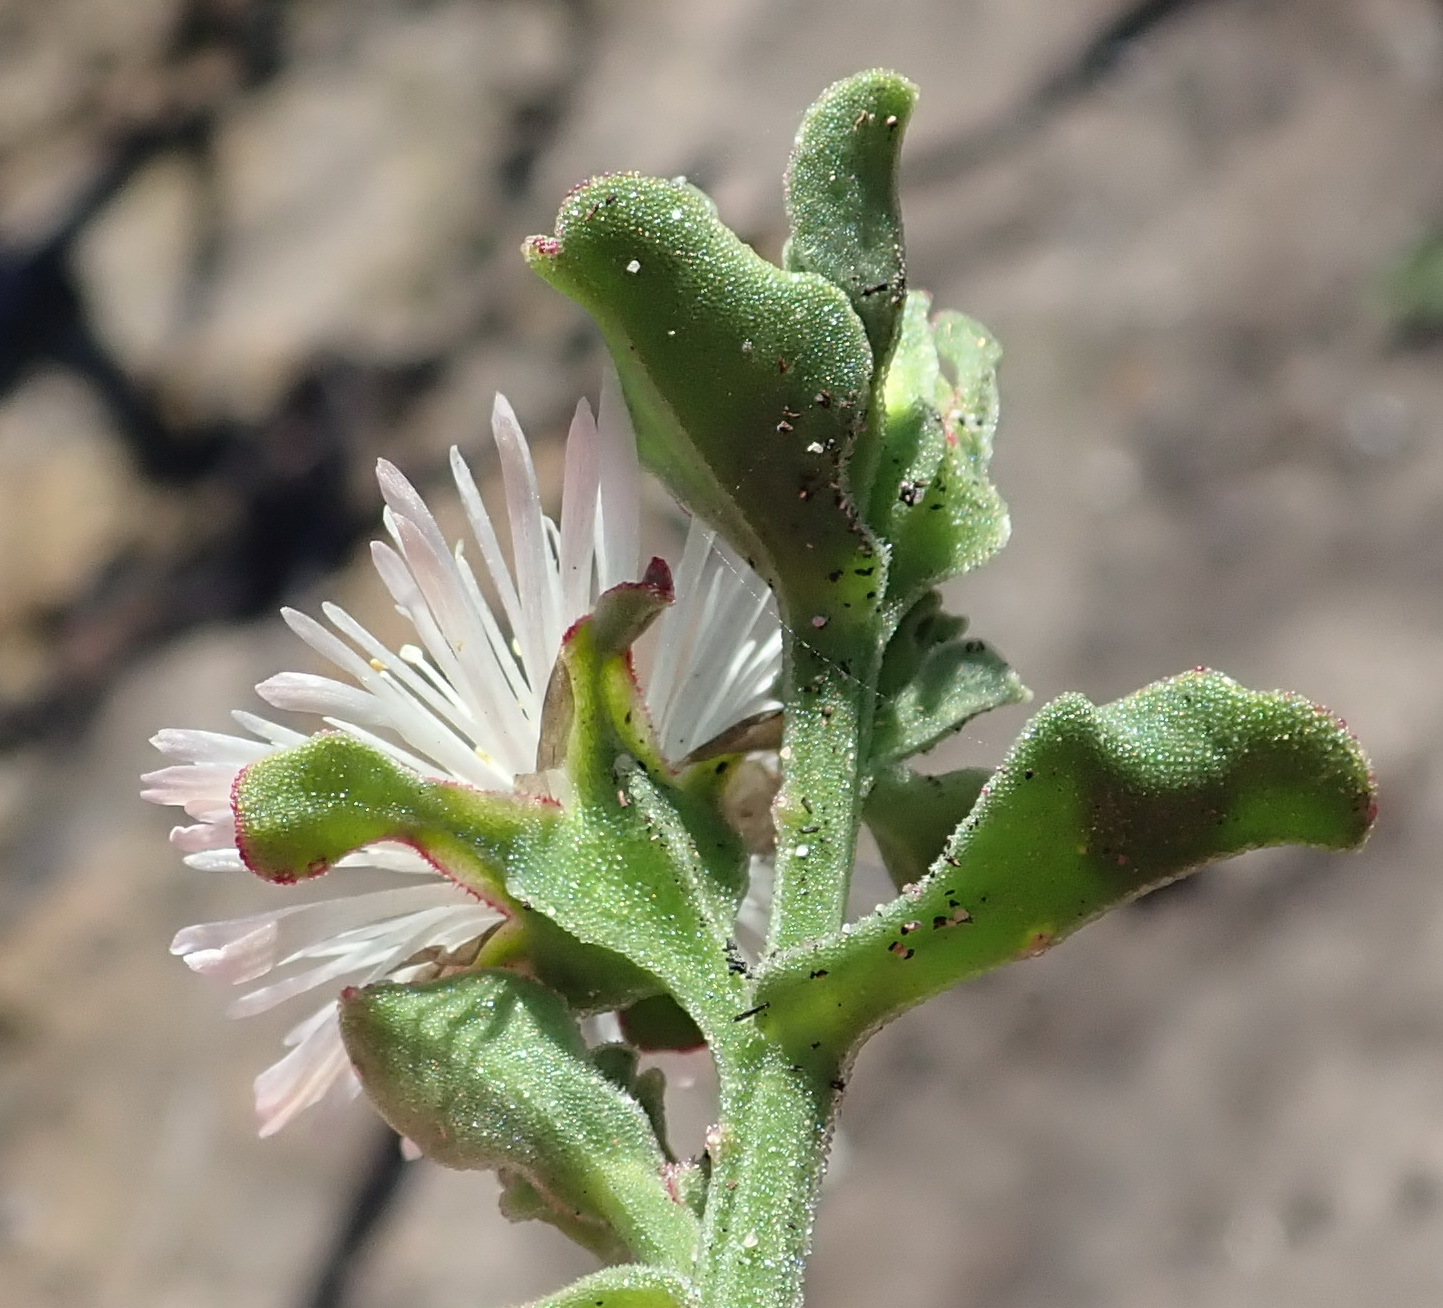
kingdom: Plantae
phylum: Tracheophyta
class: Magnoliopsida
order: Caryophyllales
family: Aizoaceae
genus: Mesembryanthemum
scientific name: Mesembryanthemum aitonis
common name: Angled iceplant
